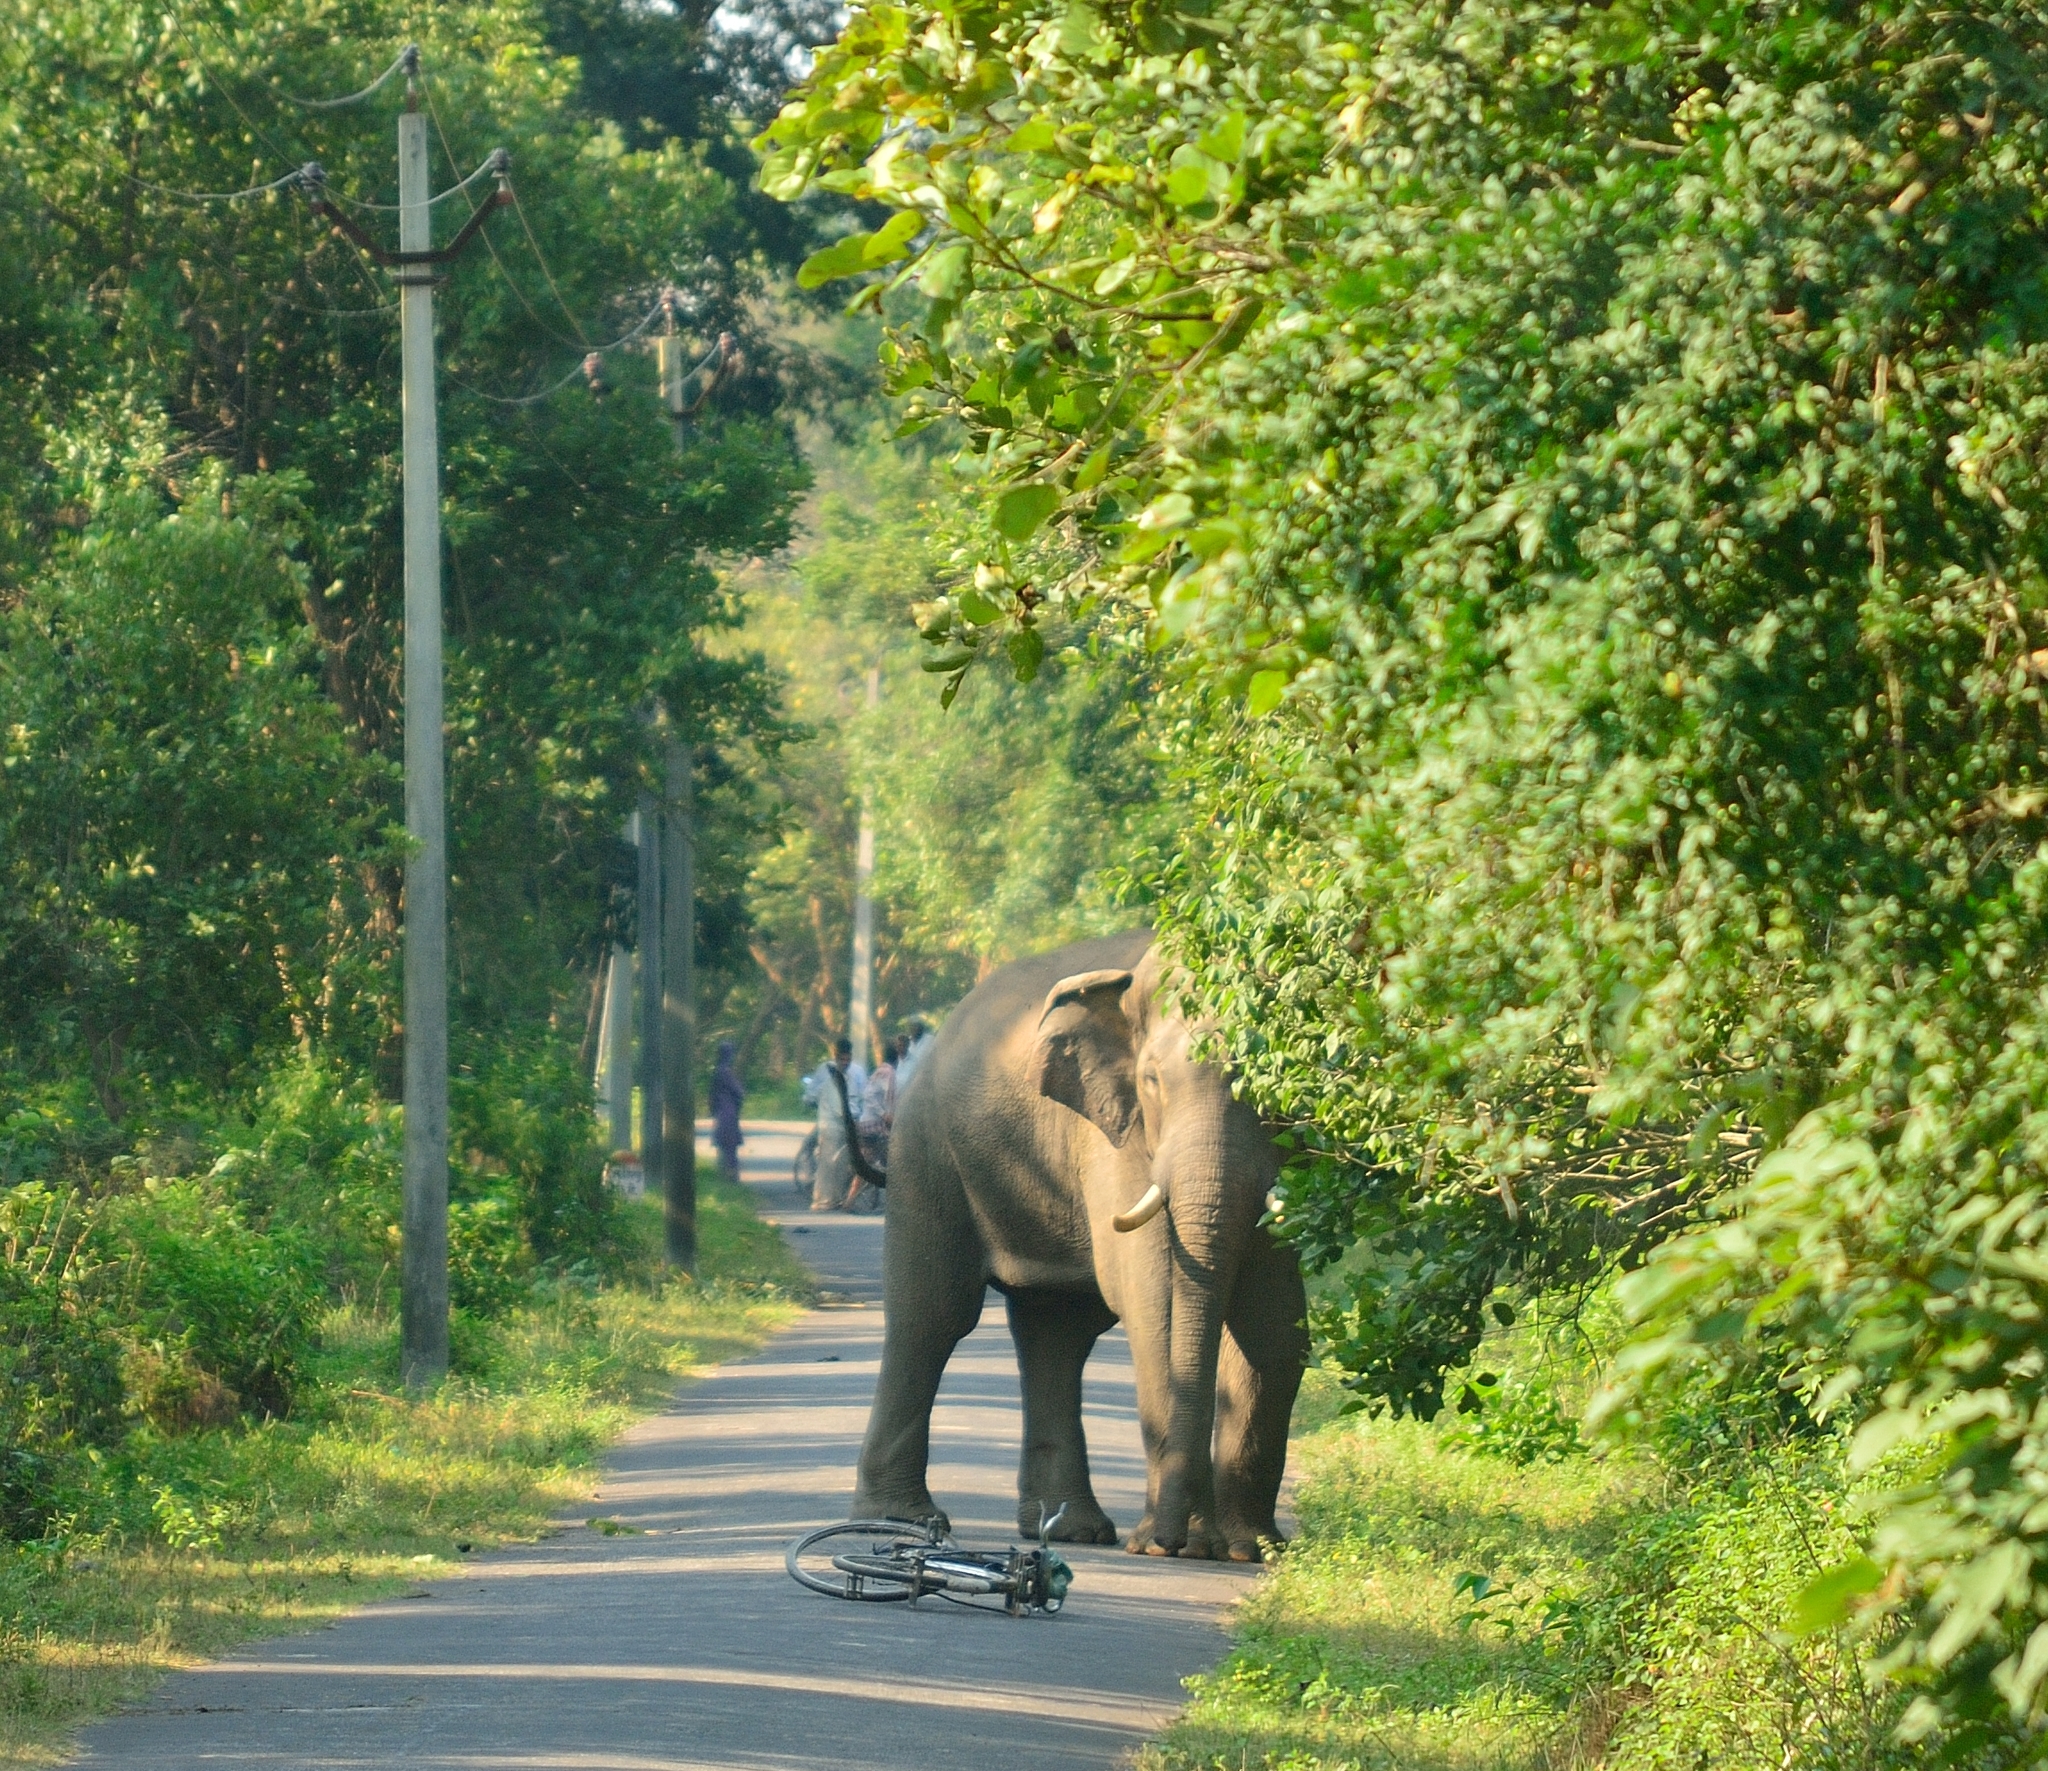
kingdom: Animalia
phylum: Chordata
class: Mammalia
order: Proboscidea
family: Elephantidae
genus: Elephas
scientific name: Elephas maximus
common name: Asian elephant
